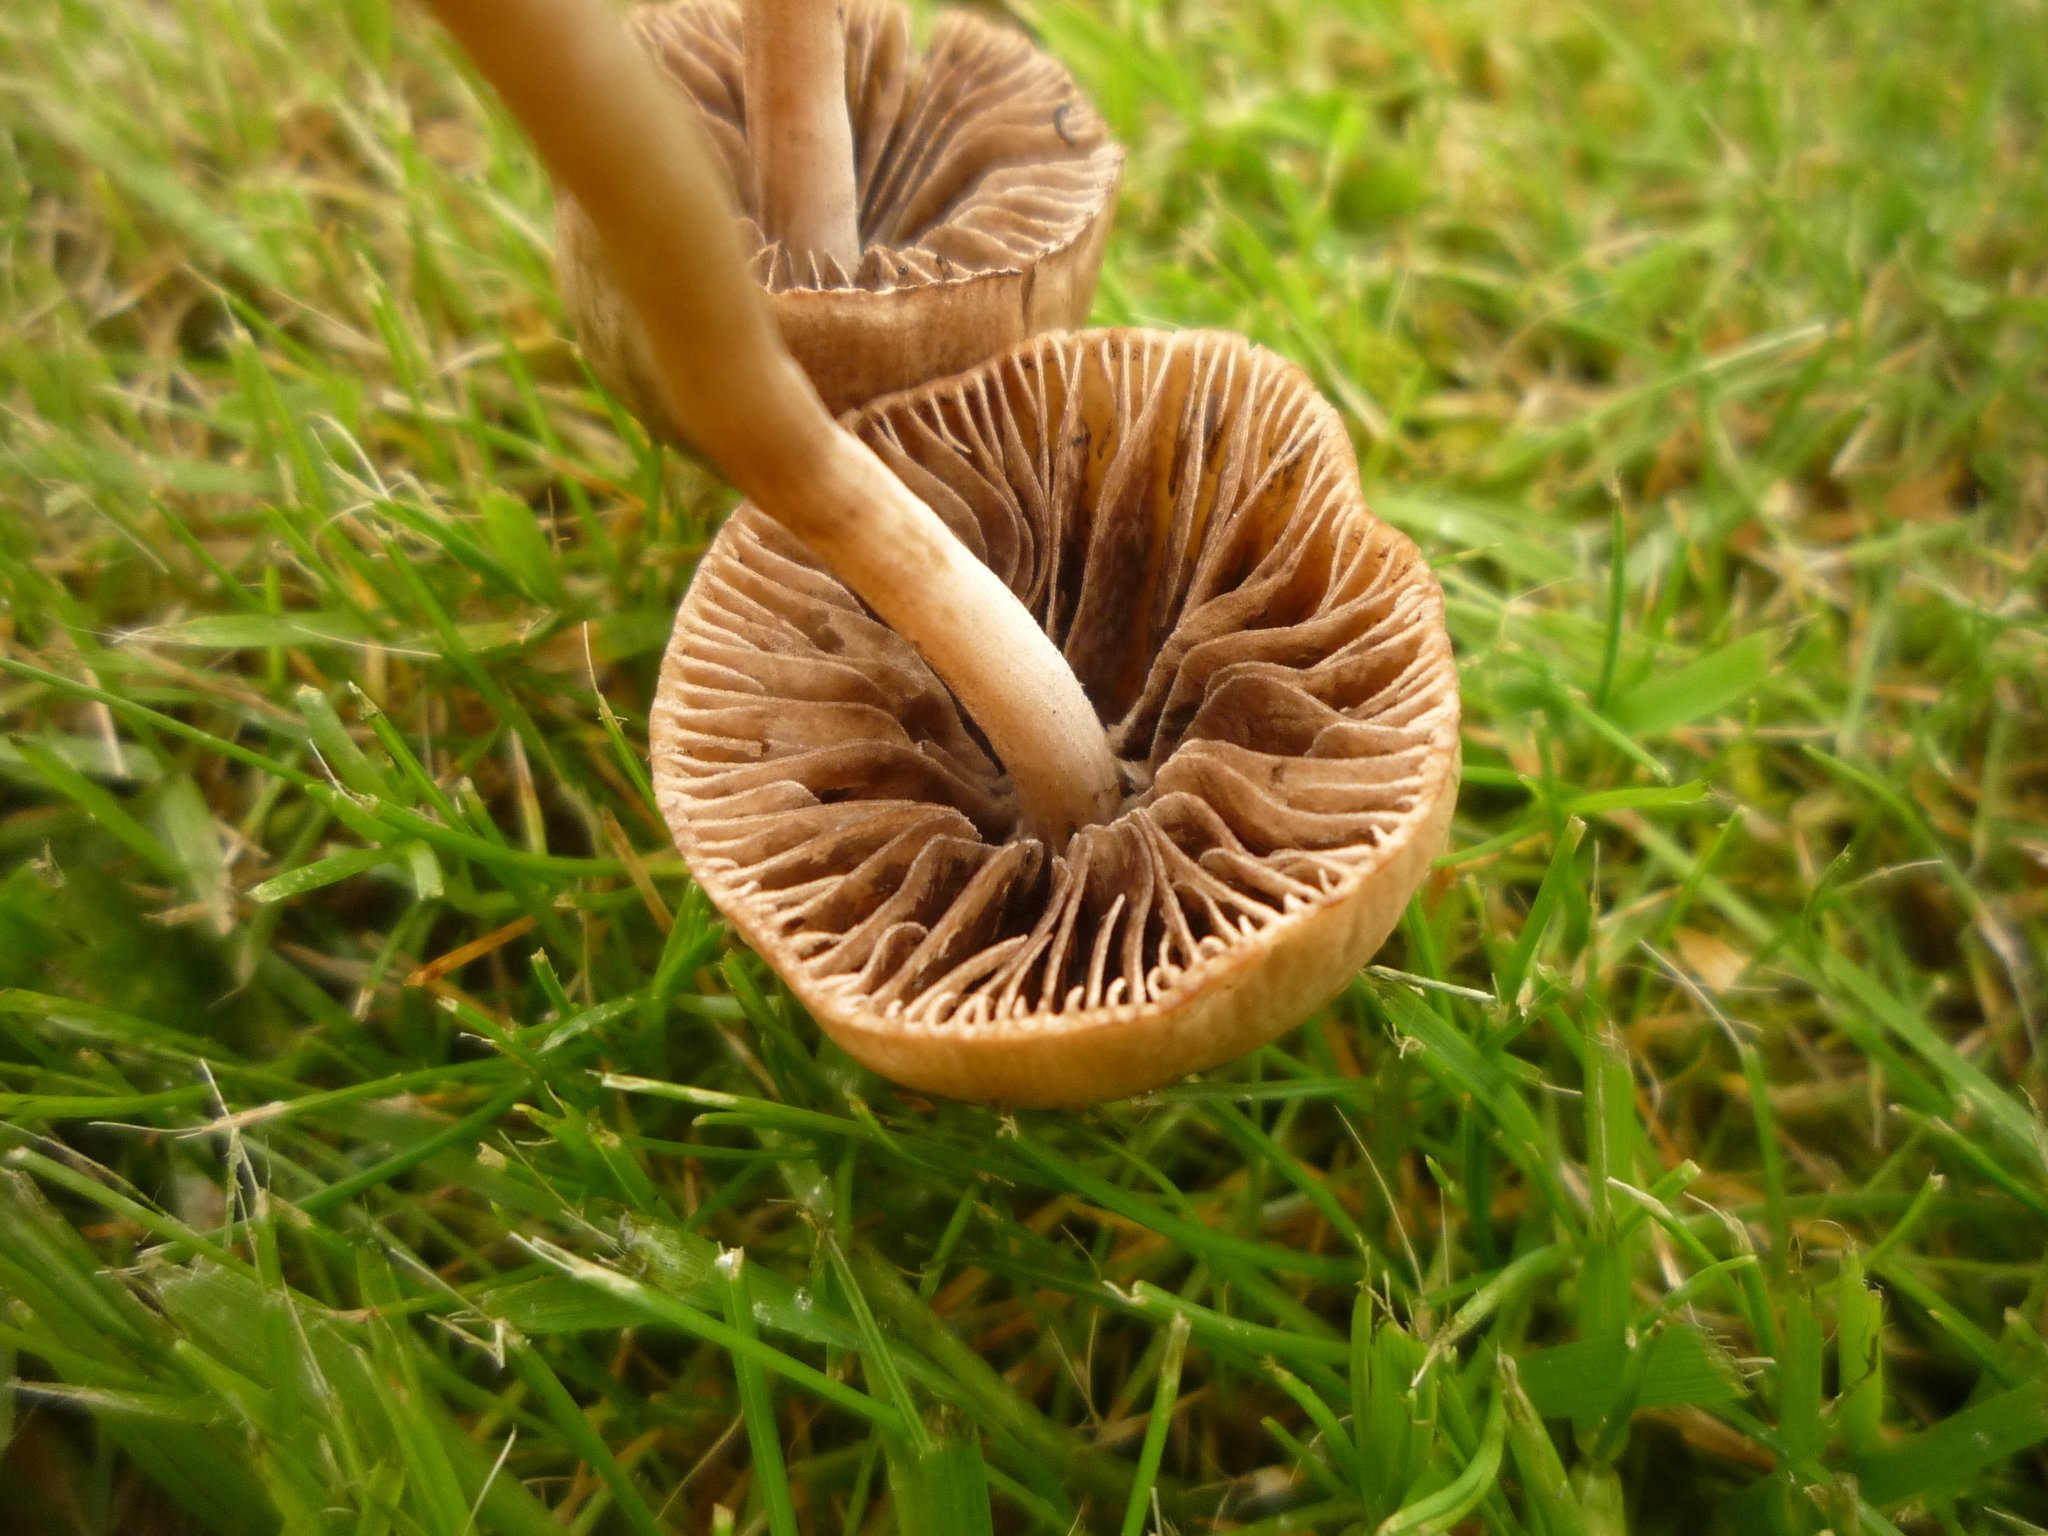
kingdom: Fungi
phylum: Basidiomycota
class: Agaricomycetes
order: Agaricales
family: Bolbitiaceae
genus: Panaeolina
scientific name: Panaeolina foenisecii
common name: Brown hay cap
